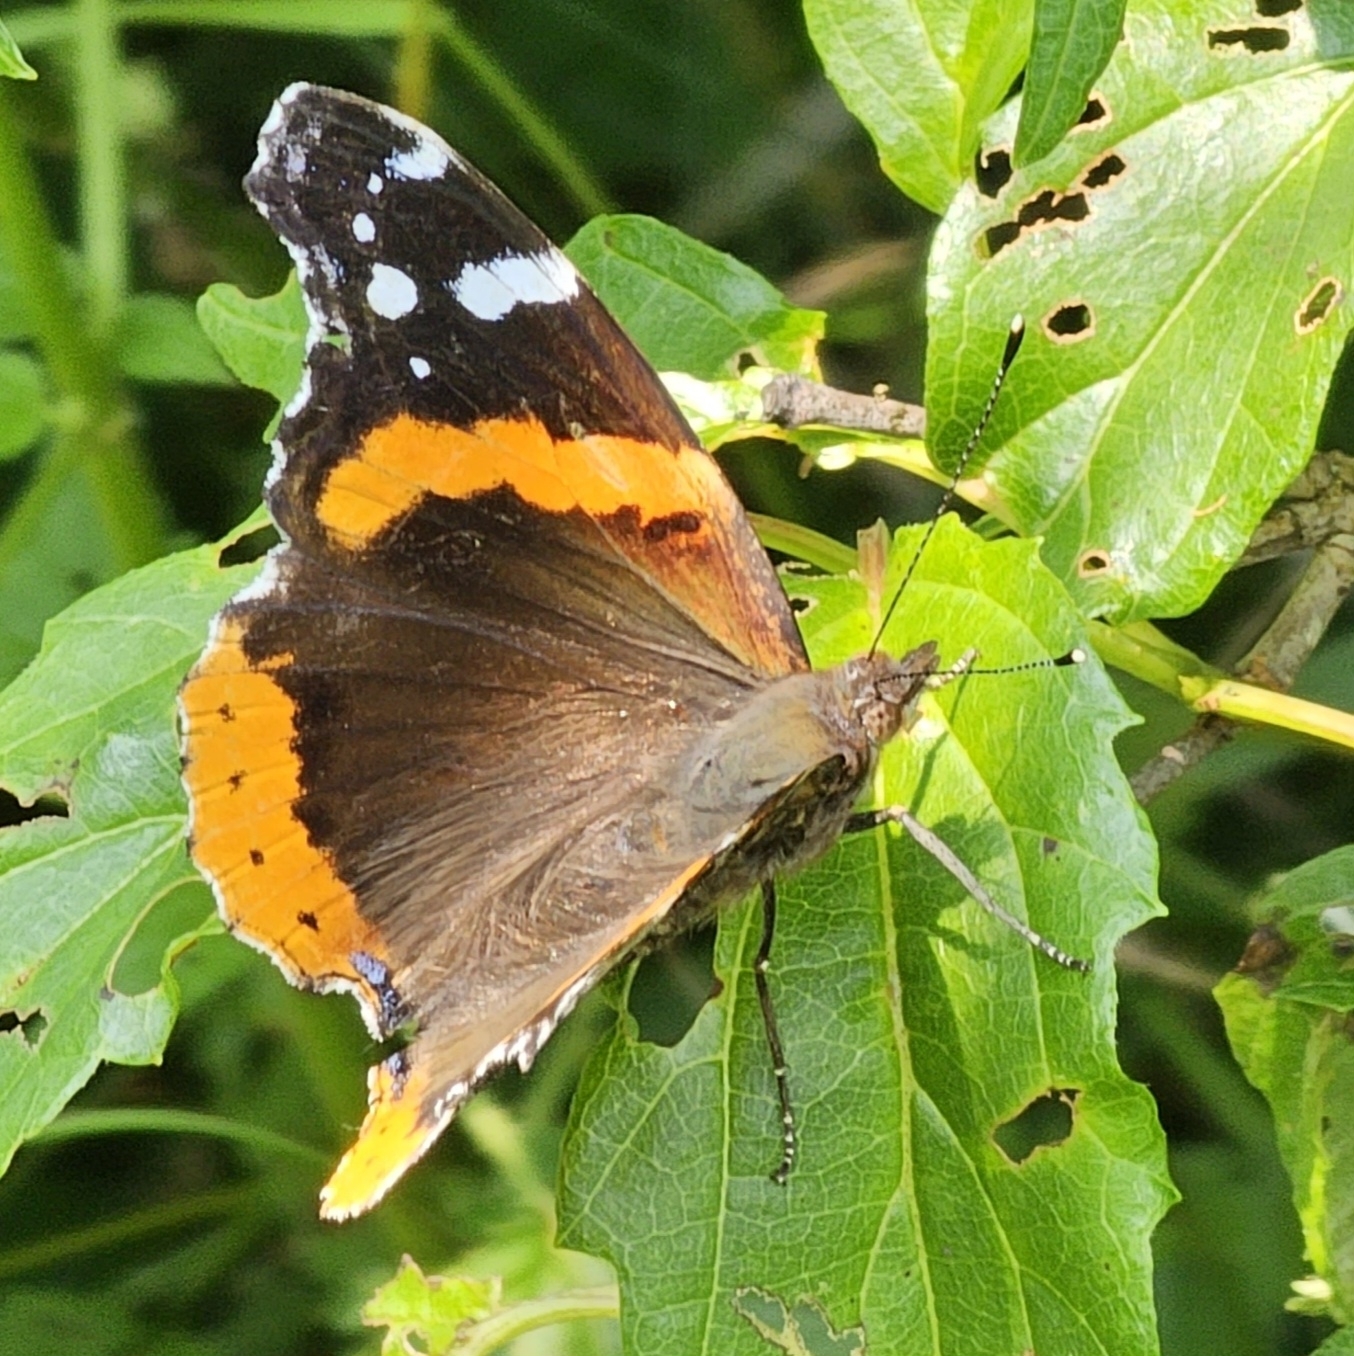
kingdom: Animalia
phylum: Arthropoda
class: Insecta
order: Lepidoptera
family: Nymphalidae
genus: Vanessa
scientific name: Vanessa atalanta
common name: Red admiral
